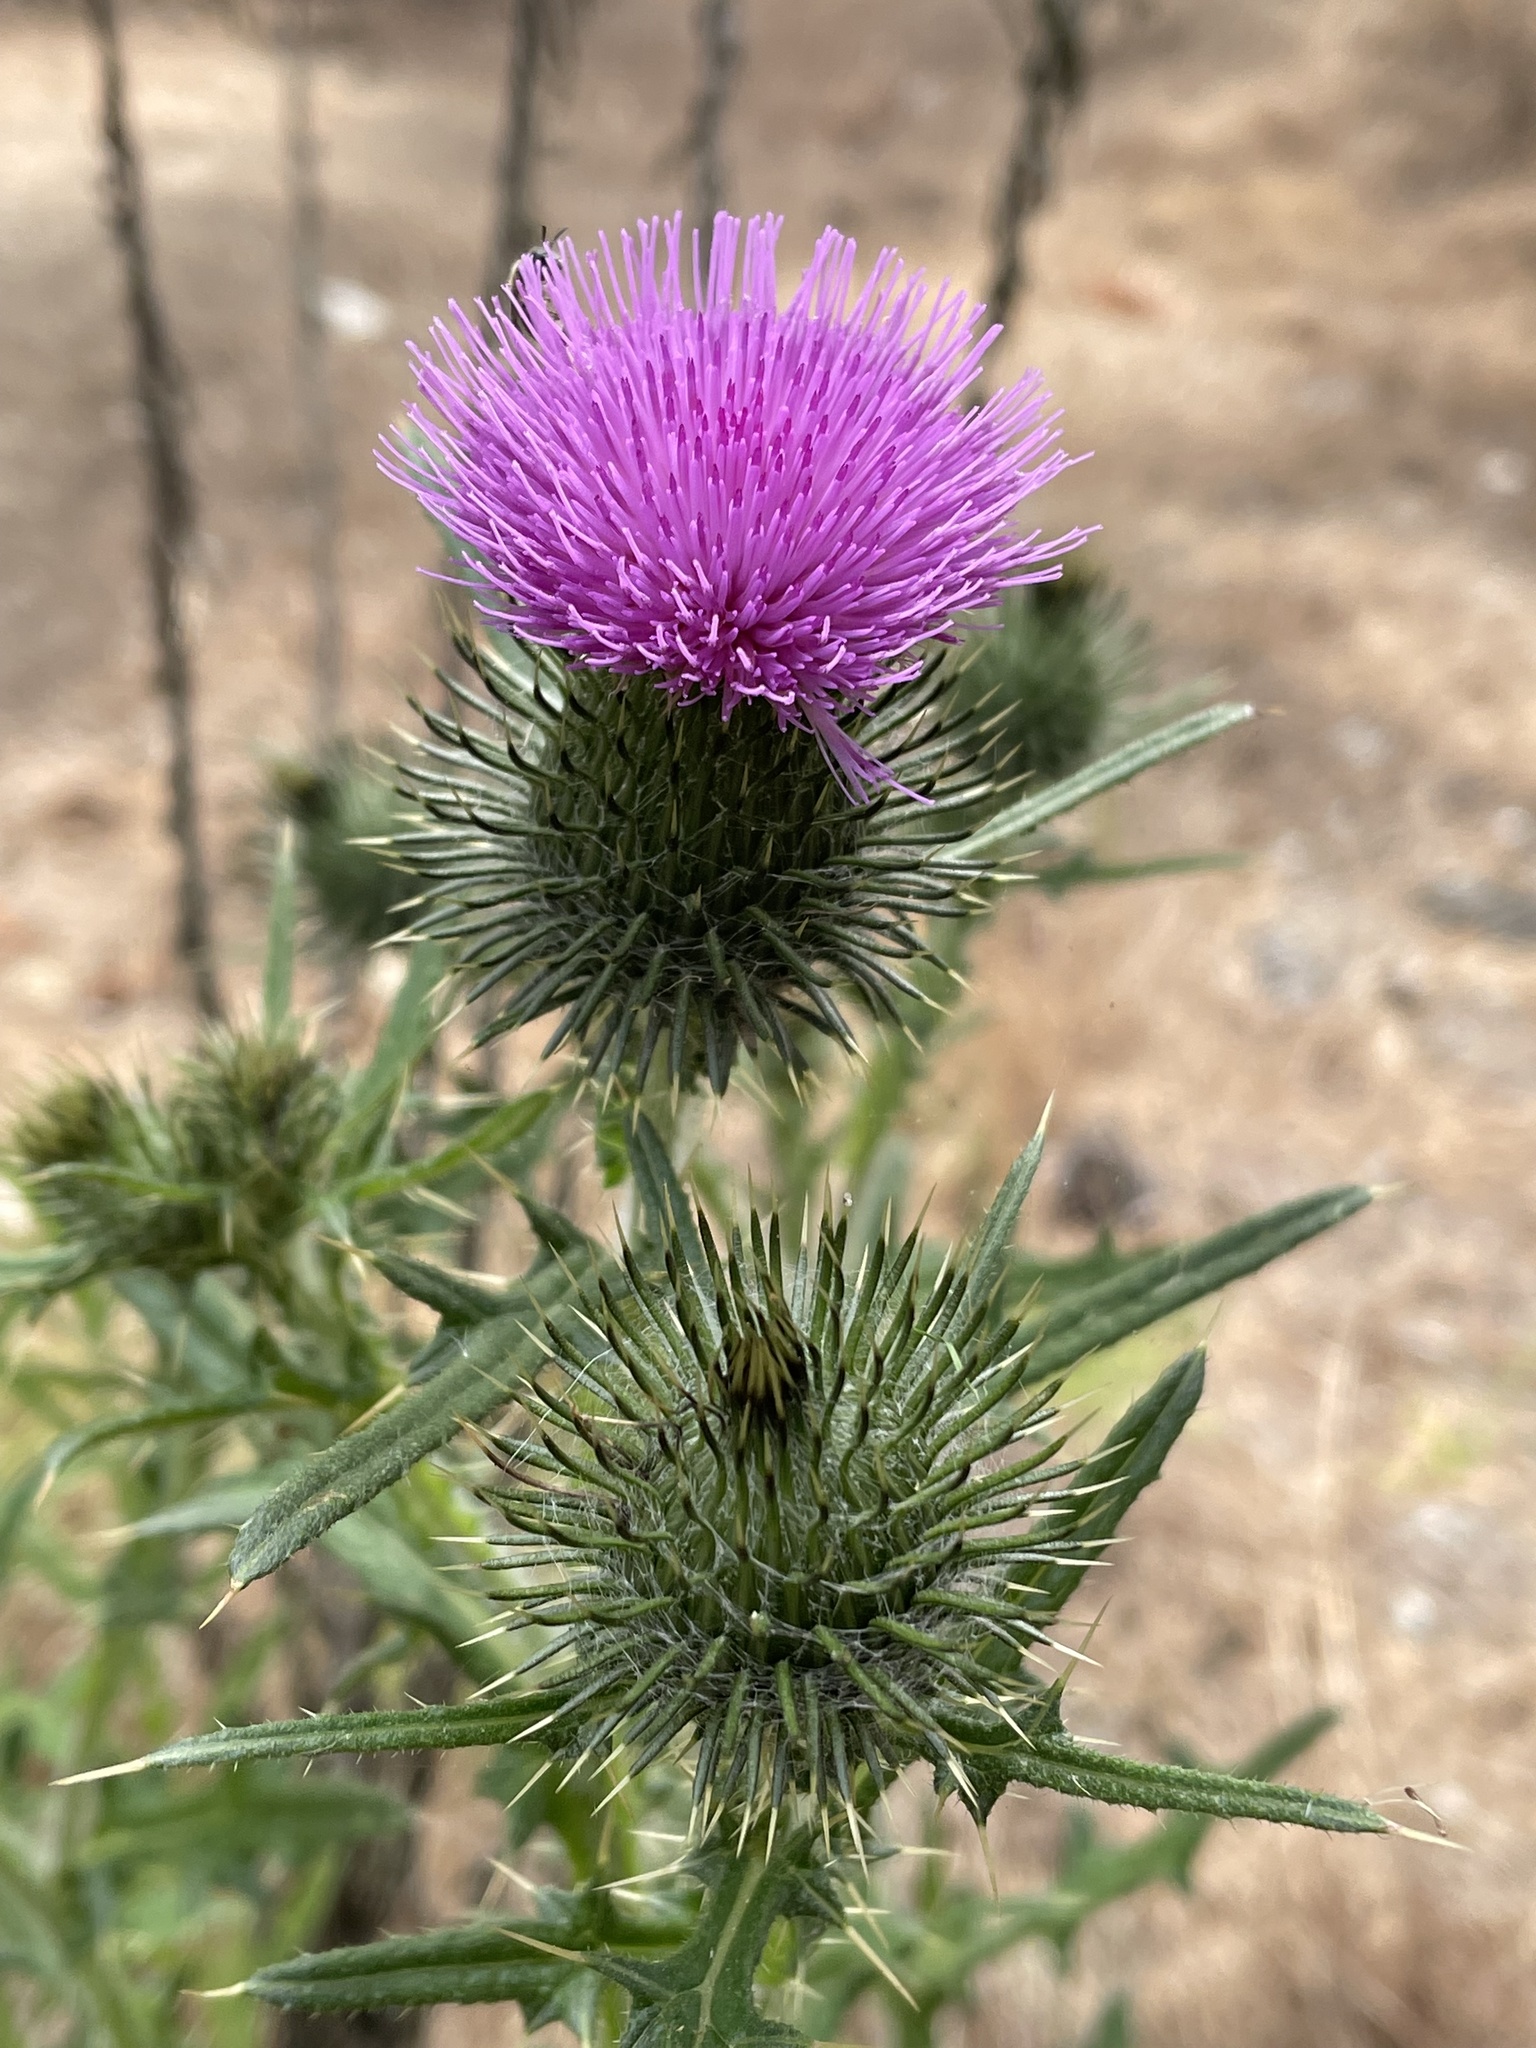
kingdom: Plantae
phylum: Tracheophyta
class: Magnoliopsida
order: Asterales
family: Asteraceae
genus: Cirsium
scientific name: Cirsium vulgare
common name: Bull thistle
